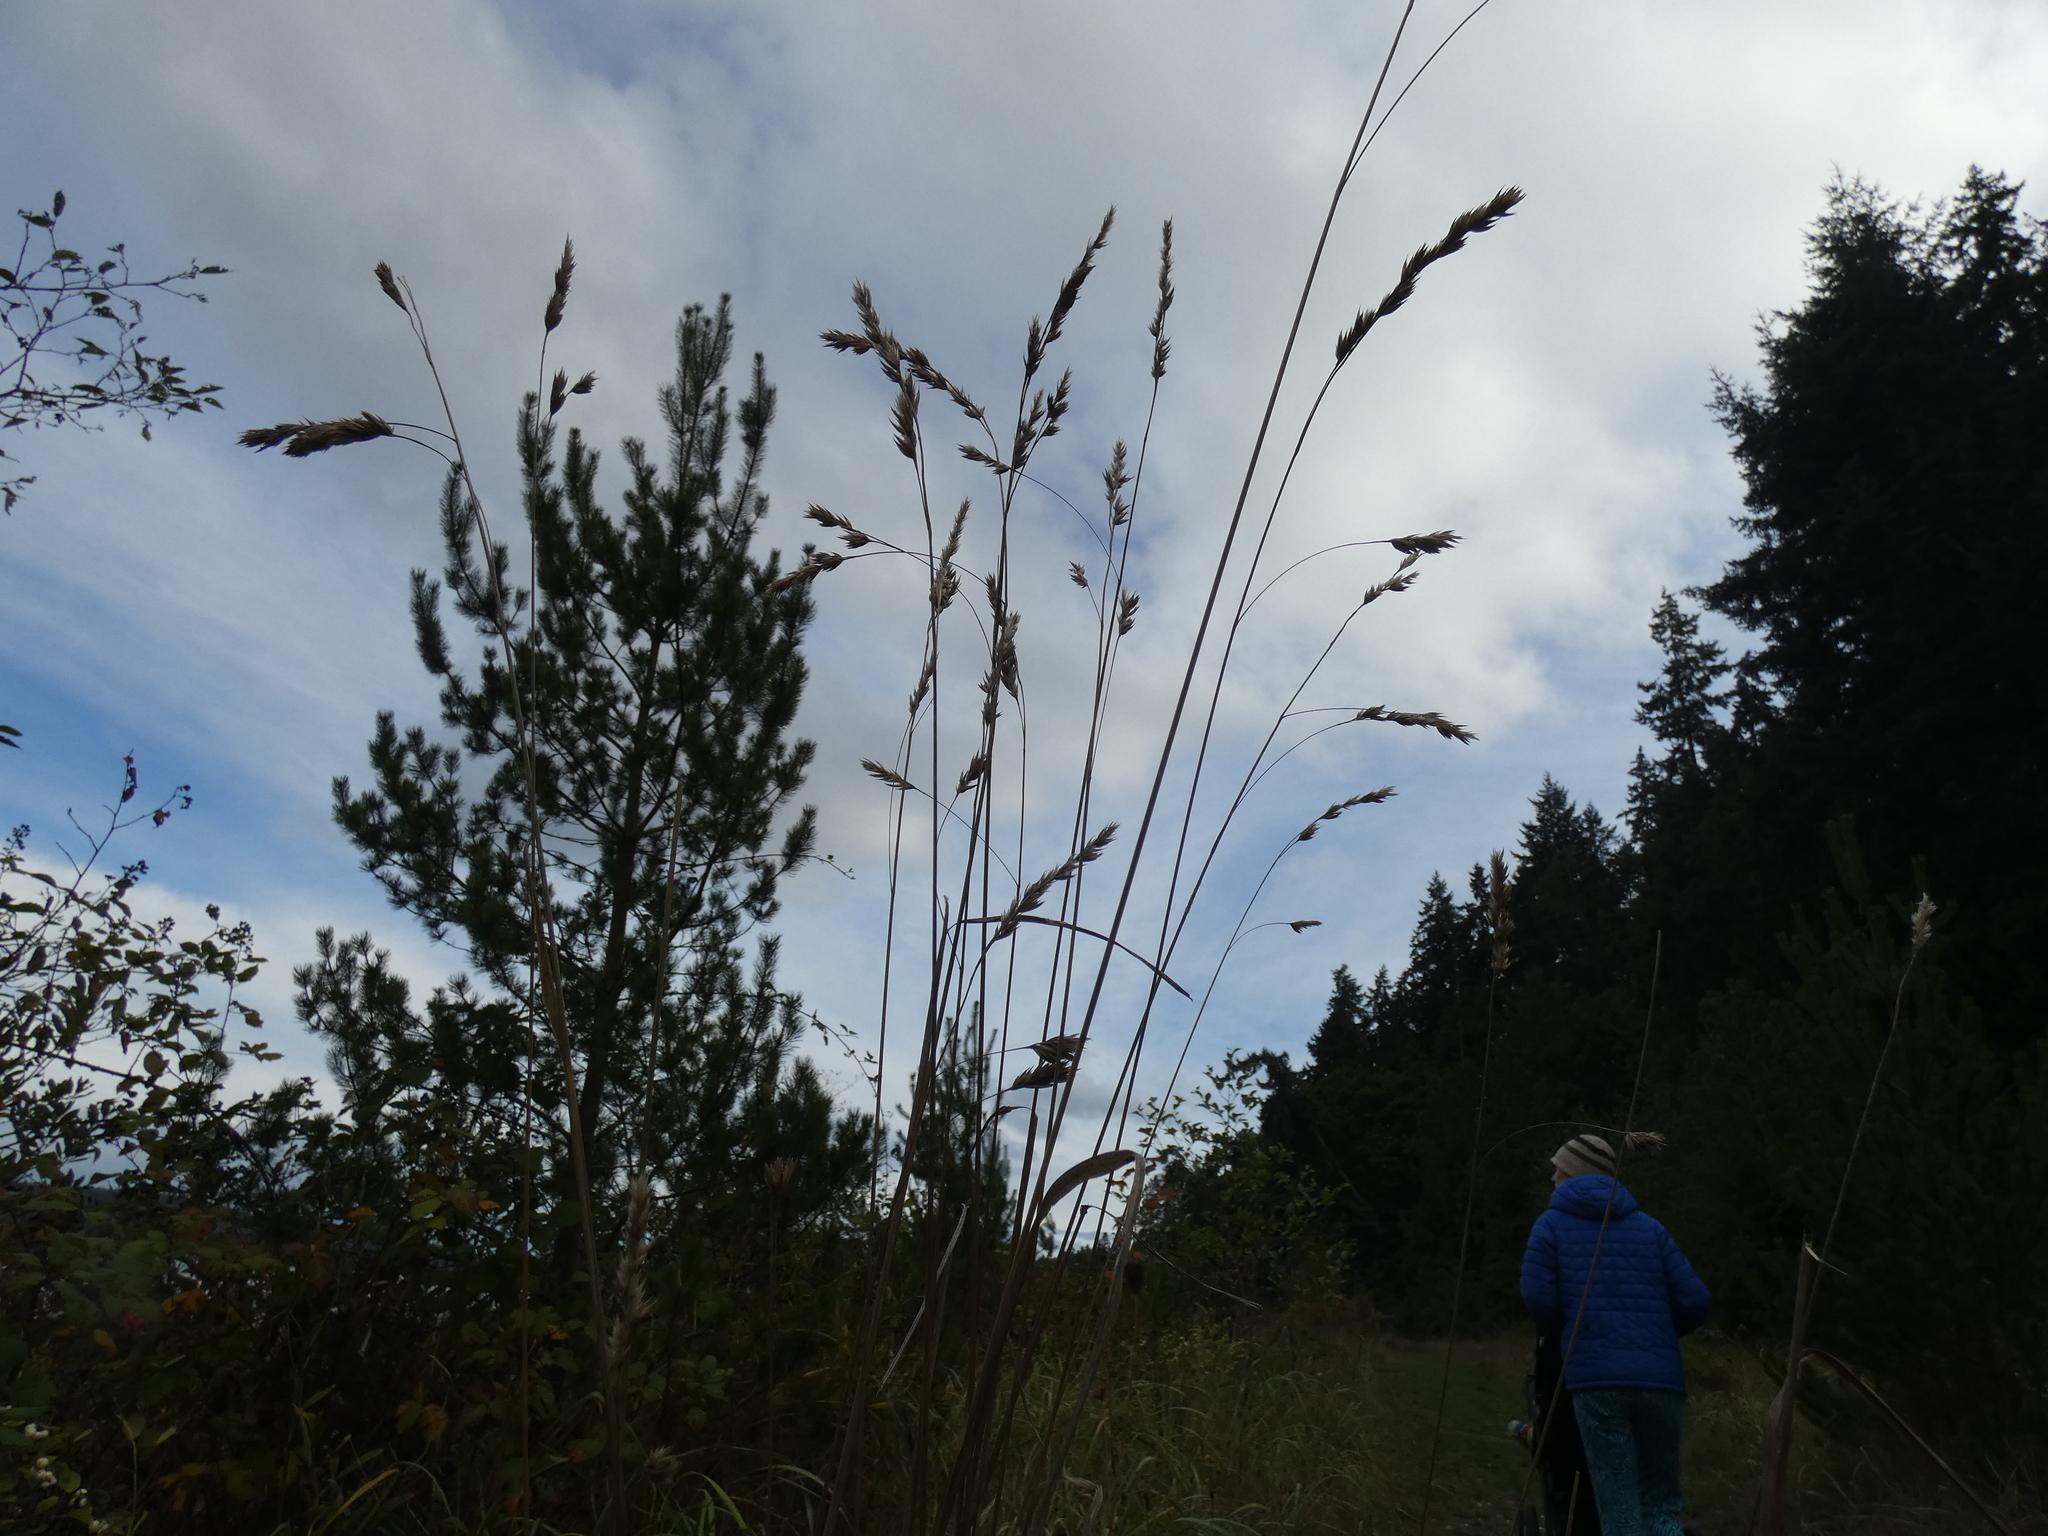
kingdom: Plantae
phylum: Tracheophyta
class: Liliopsida
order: Poales
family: Poaceae
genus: Dactylis
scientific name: Dactylis glomerata
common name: Orchardgrass
